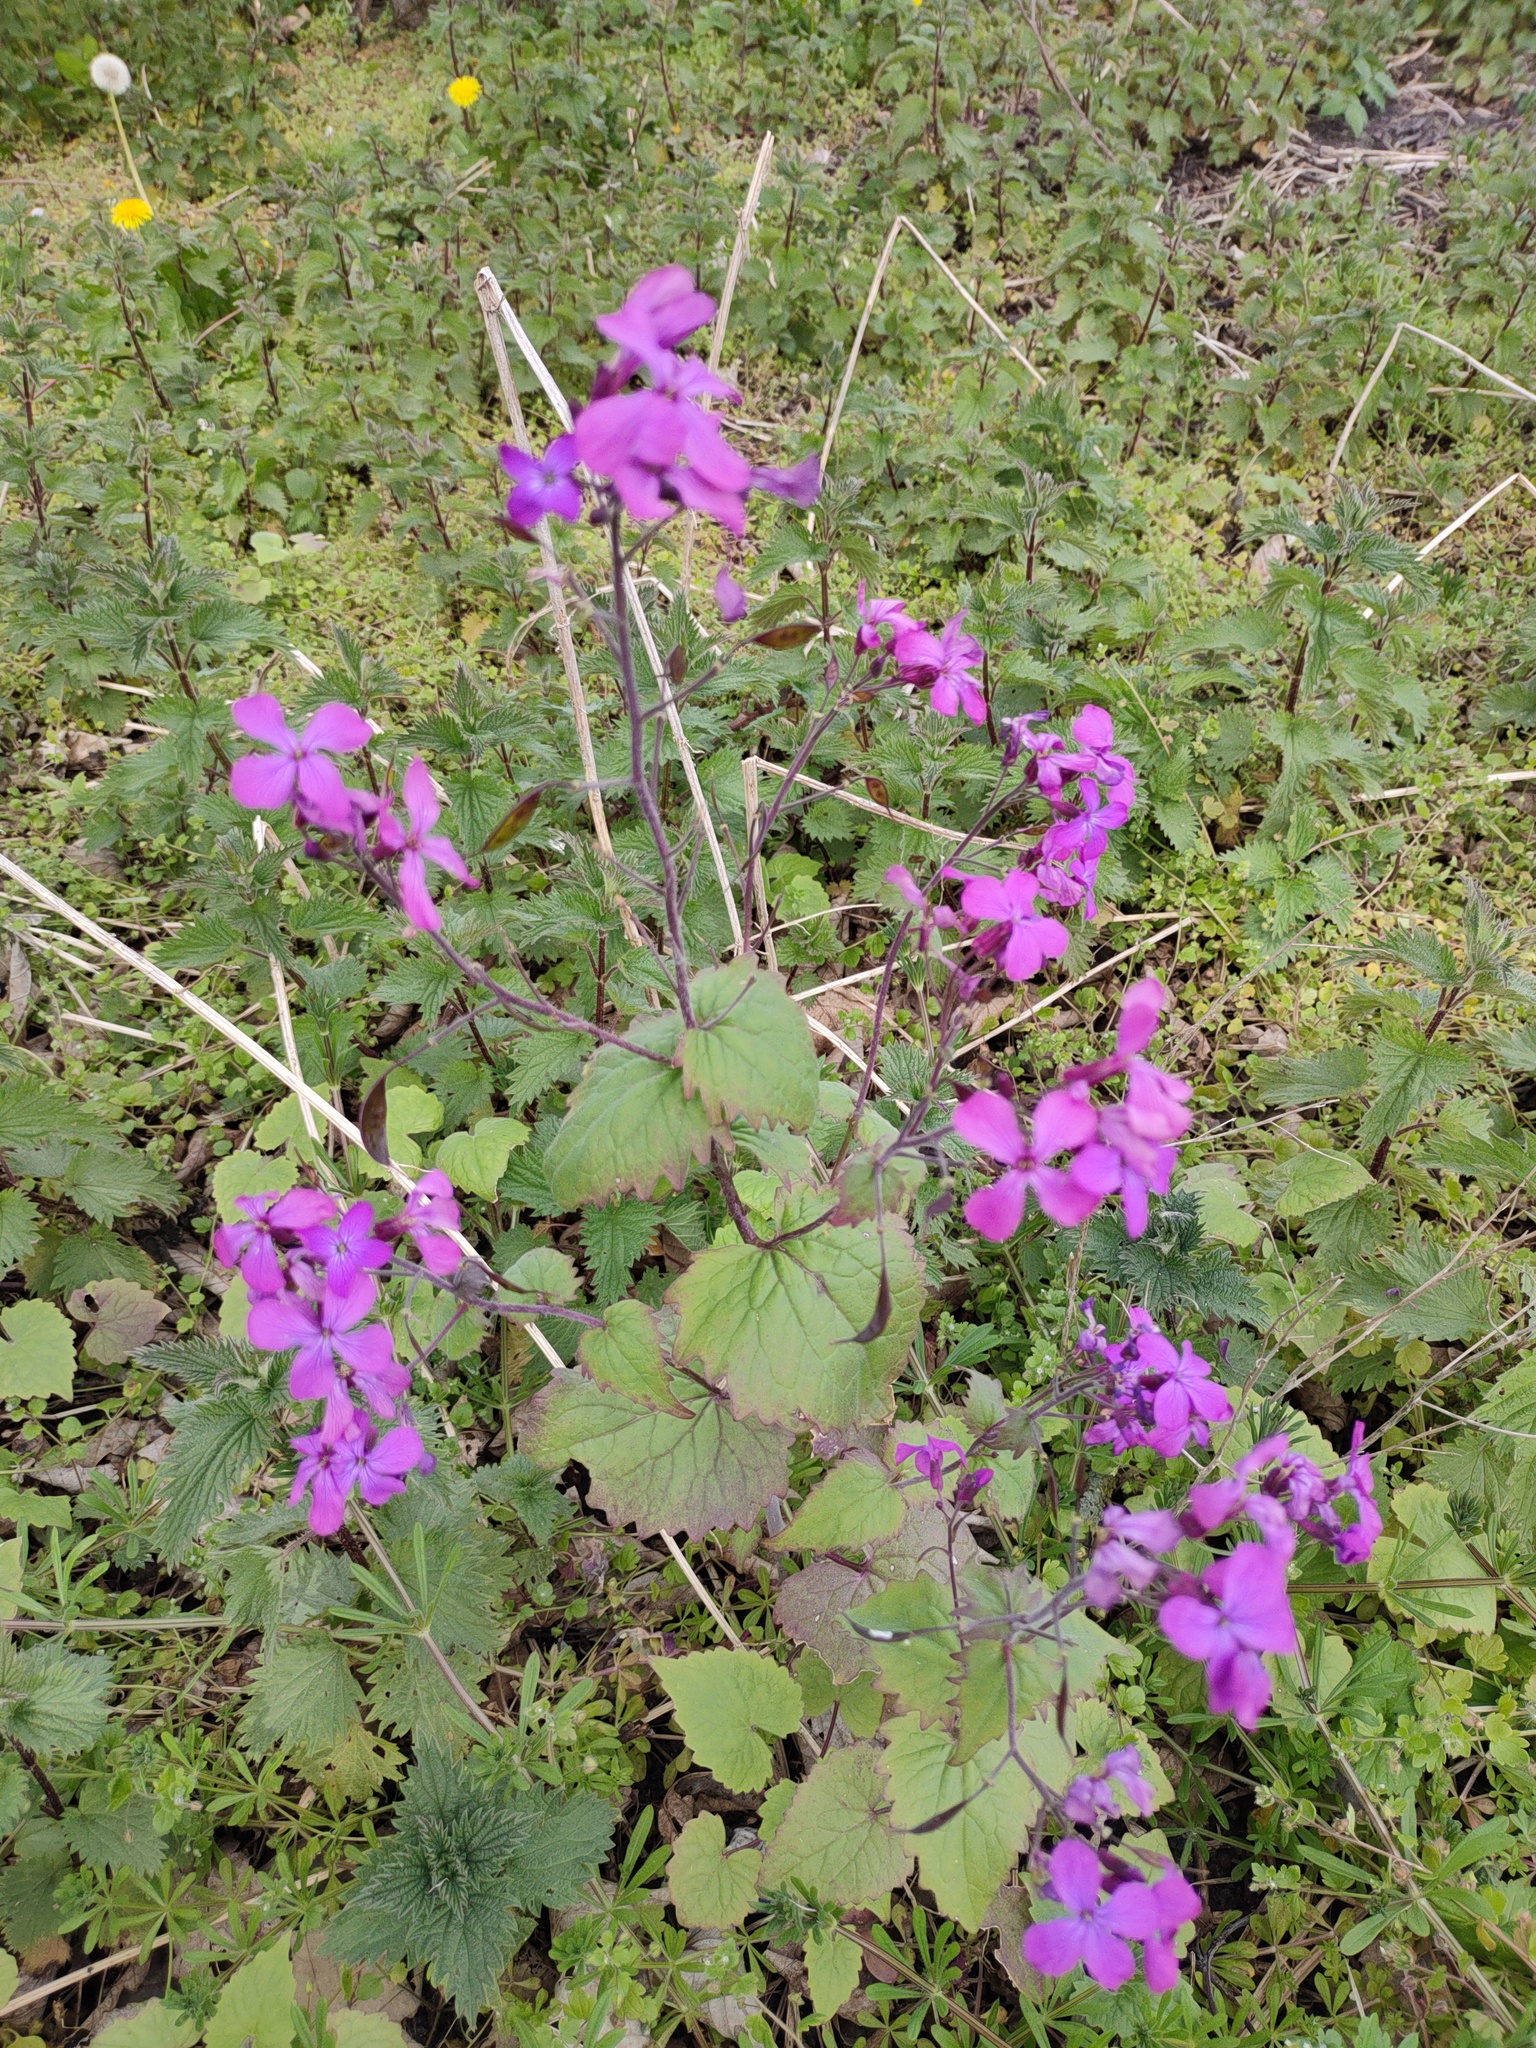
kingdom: Plantae
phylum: Tracheophyta
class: Magnoliopsida
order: Brassicales
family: Brassicaceae
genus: Lunaria
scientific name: Lunaria annua
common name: Honesty
